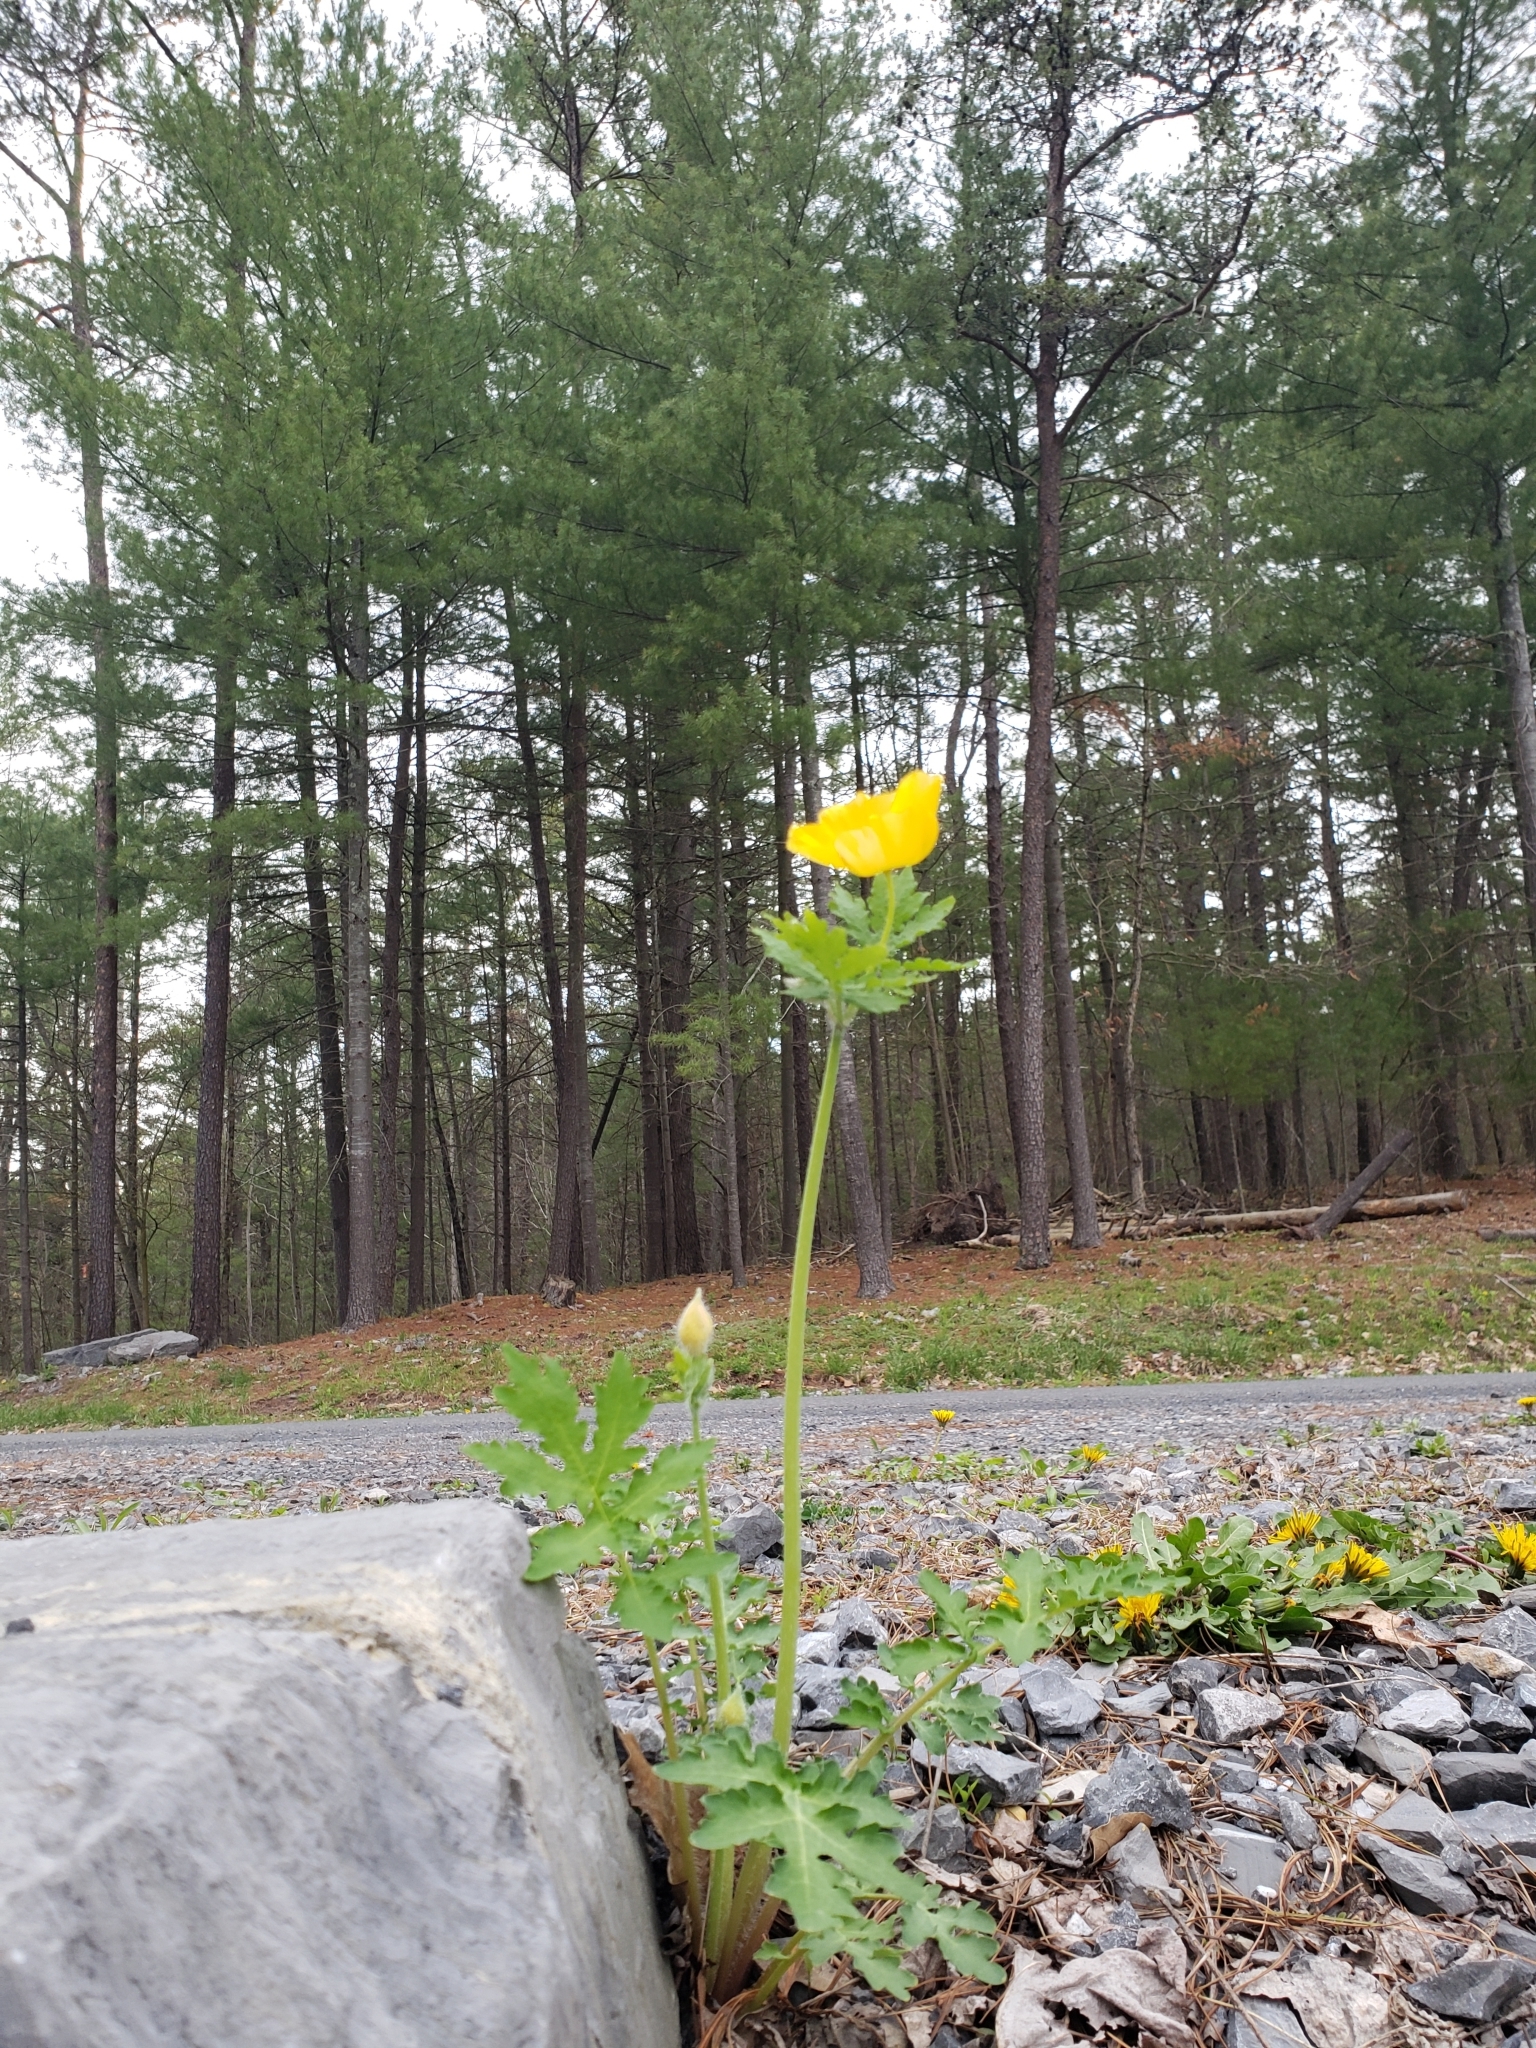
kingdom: Plantae
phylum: Tracheophyta
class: Magnoliopsida
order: Ranunculales
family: Papaveraceae
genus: Stylophorum
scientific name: Stylophorum diphyllum
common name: Celandine poppy
